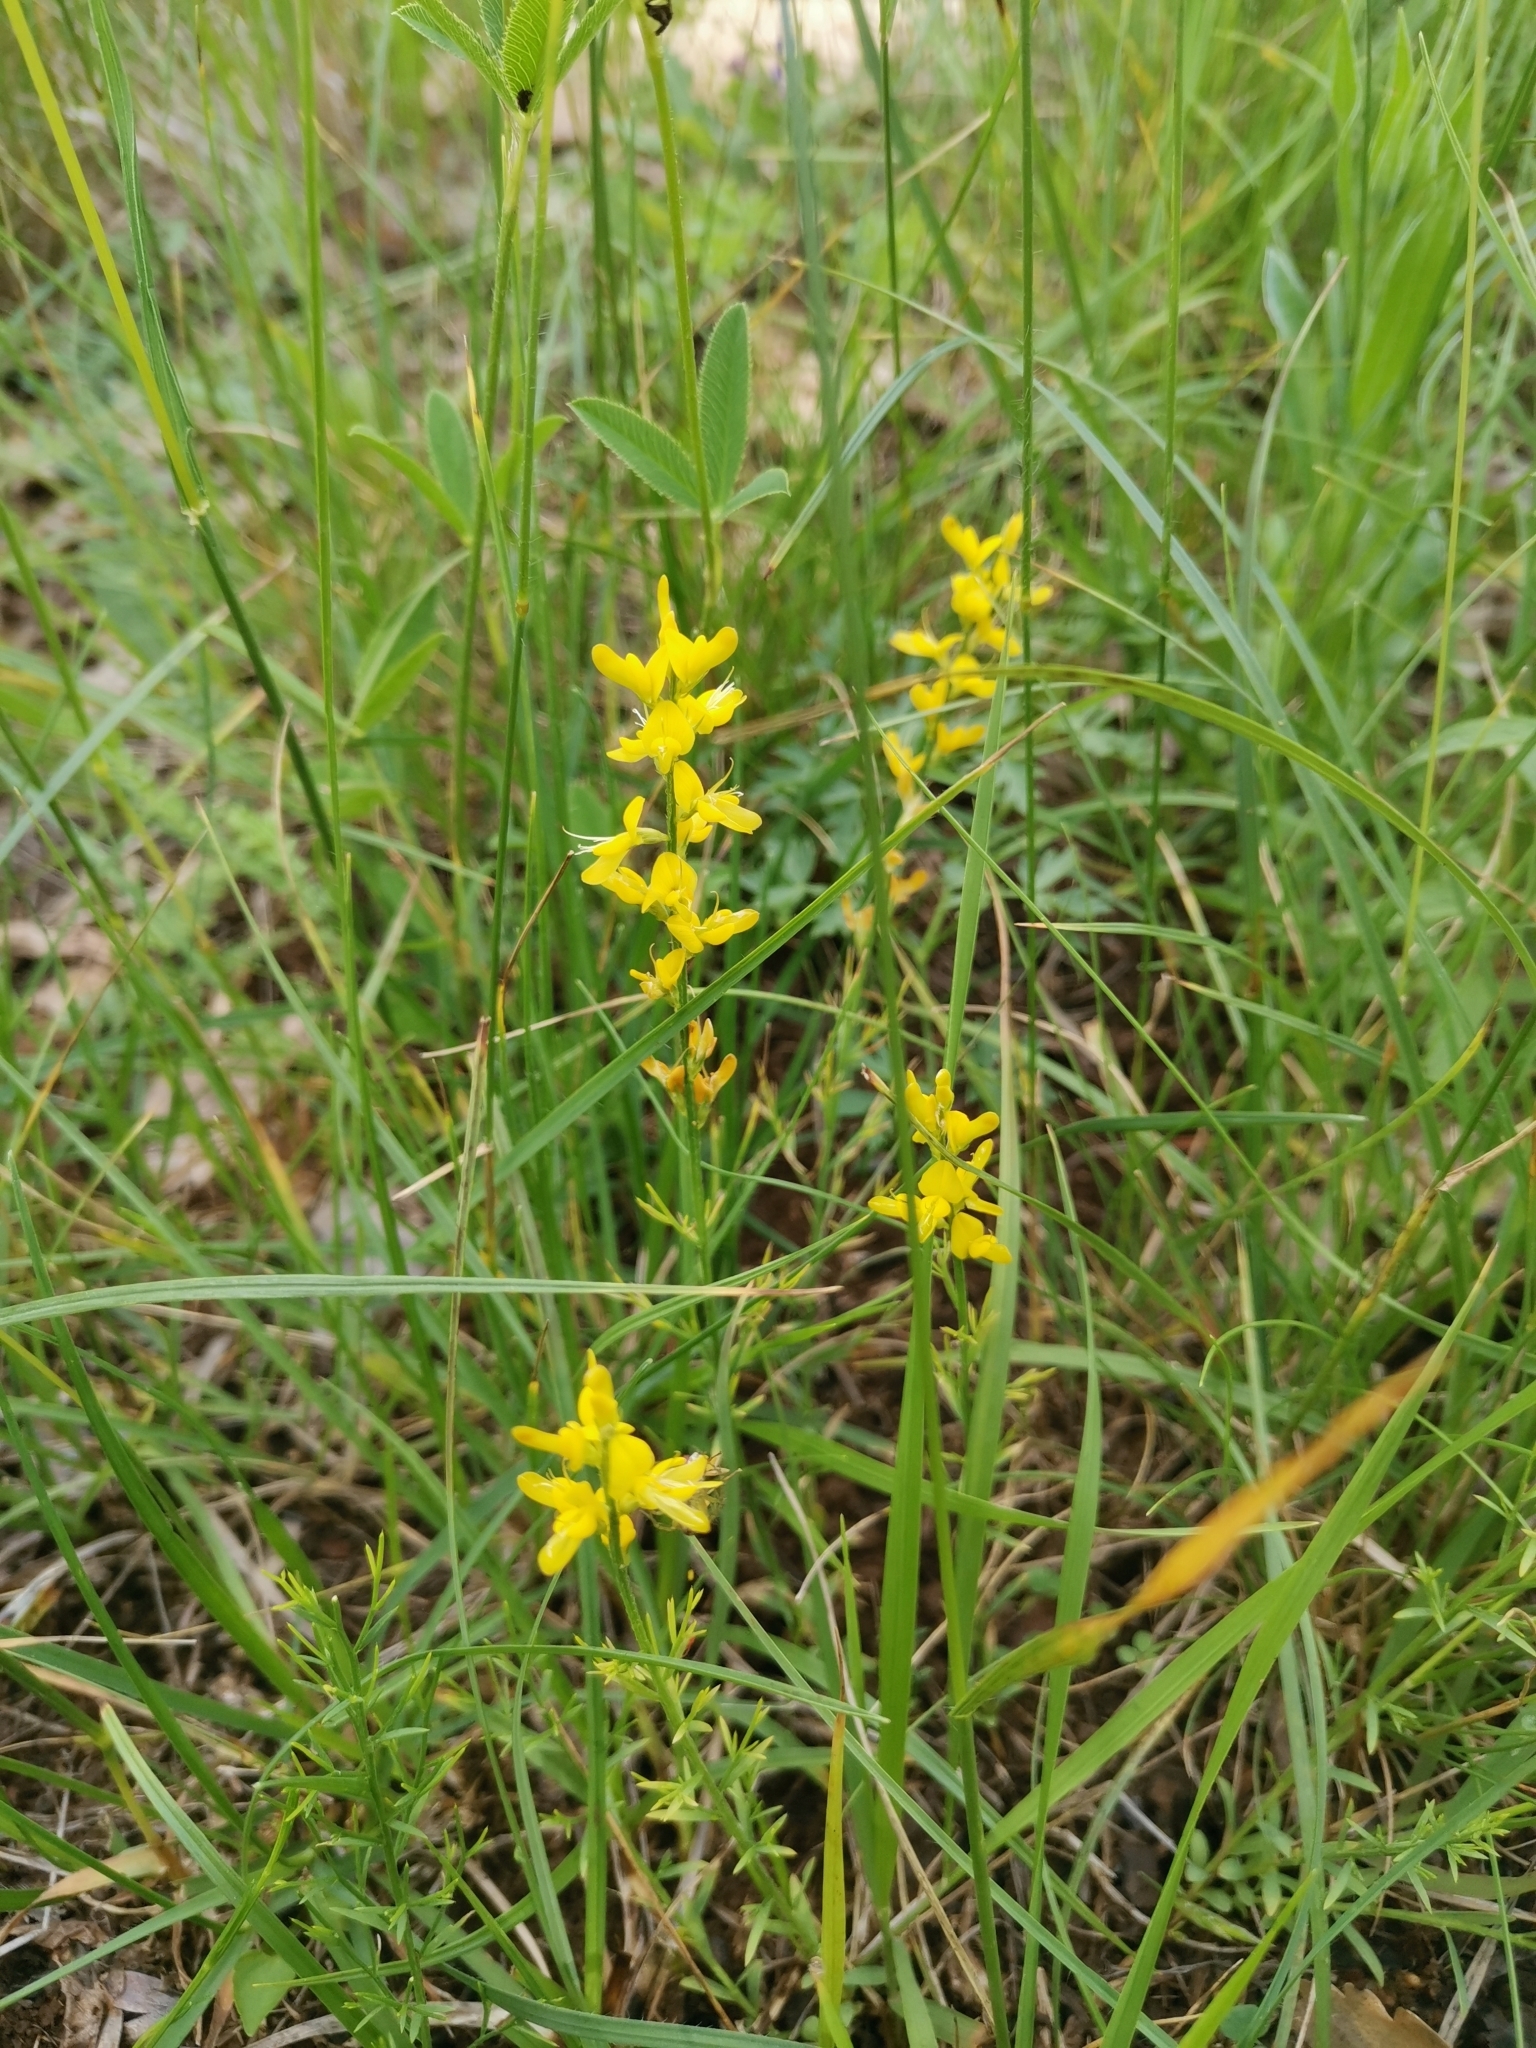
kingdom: Plantae
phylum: Tracheophyta
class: Magnoliopsida
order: Fabales
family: Fabaceae
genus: Genista
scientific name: Genista sylvestris
